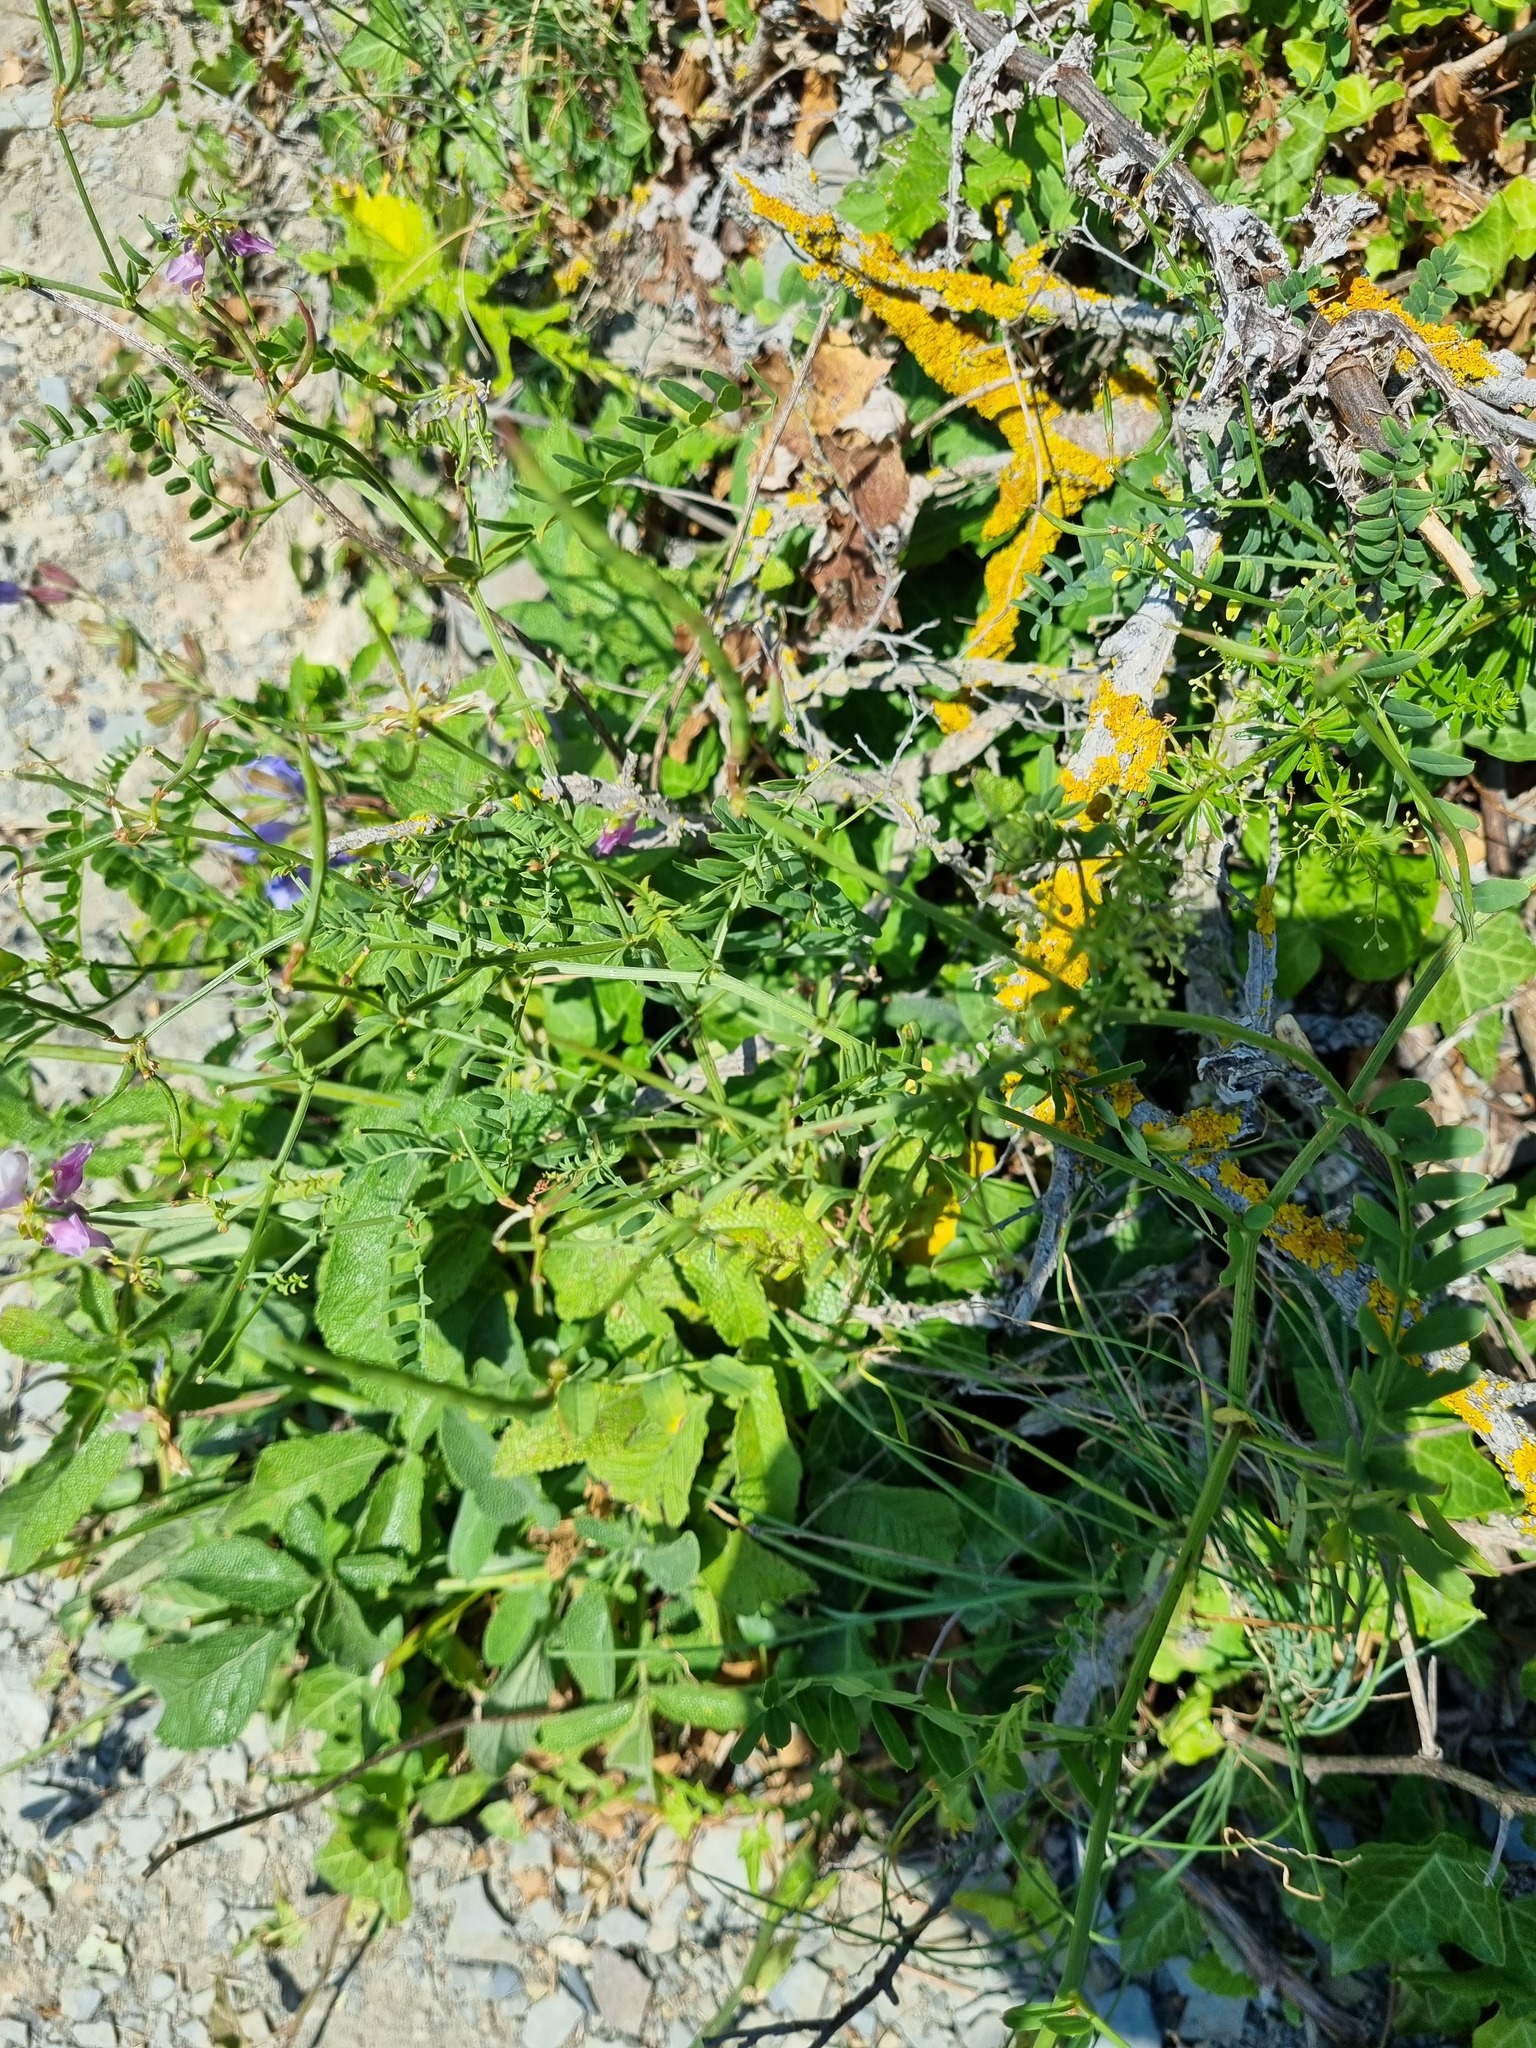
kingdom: Plantae
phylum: Tracheophyta
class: Magnoliopsida
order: Apiales
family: Araliaceae
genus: Hedera
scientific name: Hedera helix
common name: Ivy
